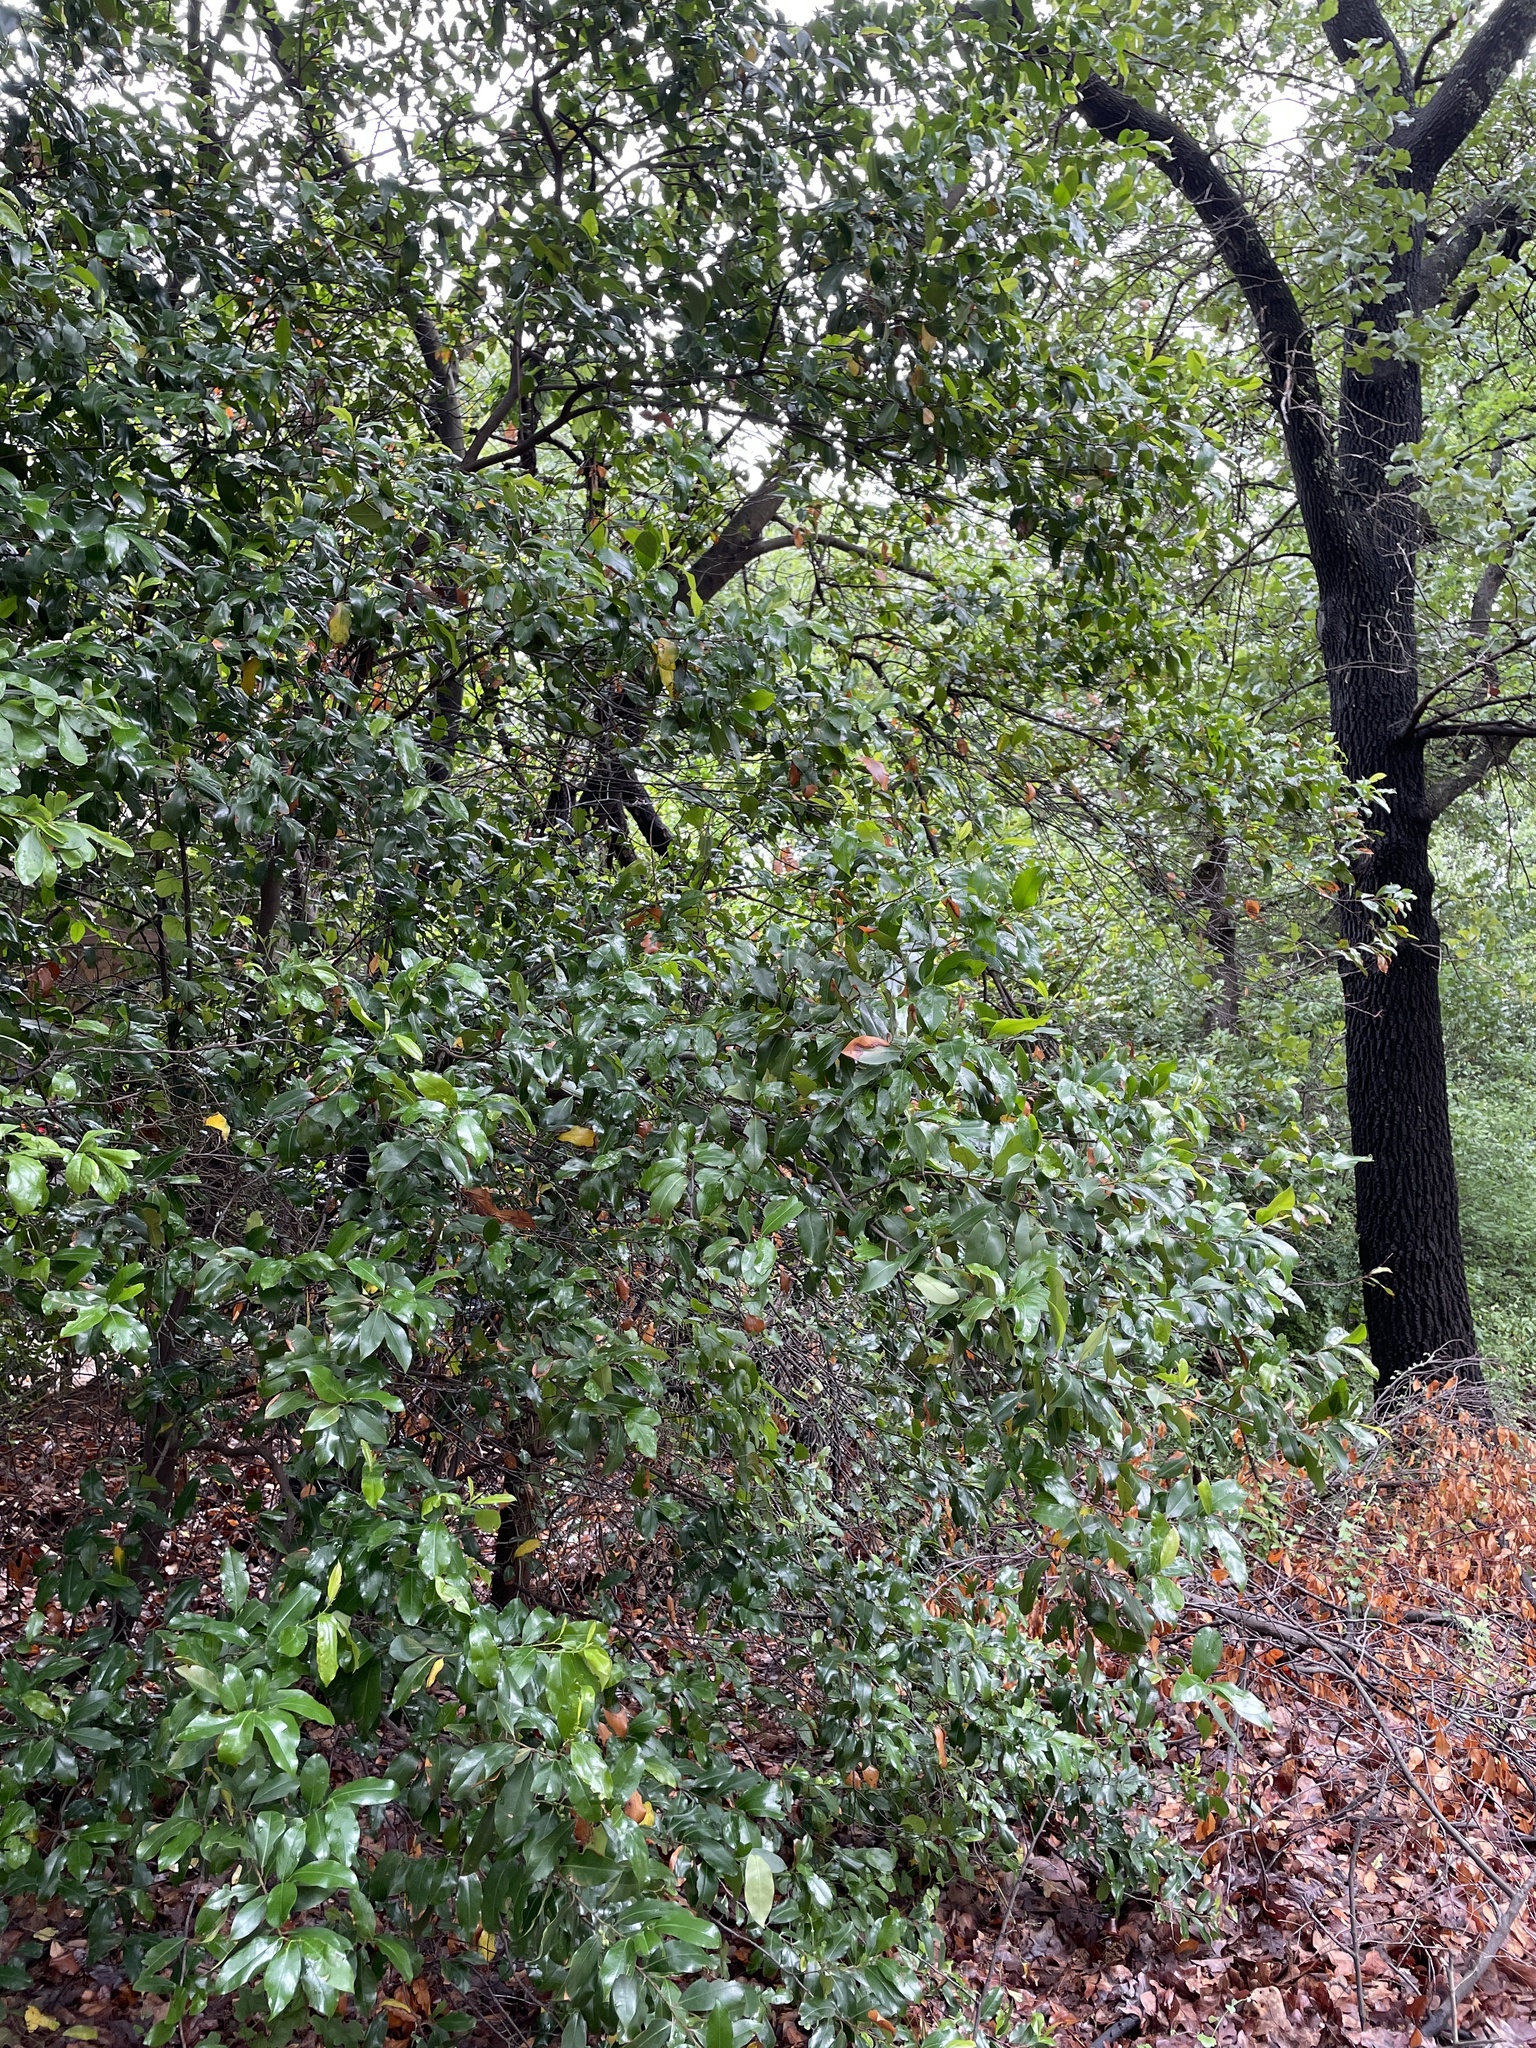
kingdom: Plantae
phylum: Tracheophyta
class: Magnoliopsida
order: Rosales
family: Rosaceae
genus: Prunus
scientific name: Prunus caroliniana
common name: Carolina laurel cherry
